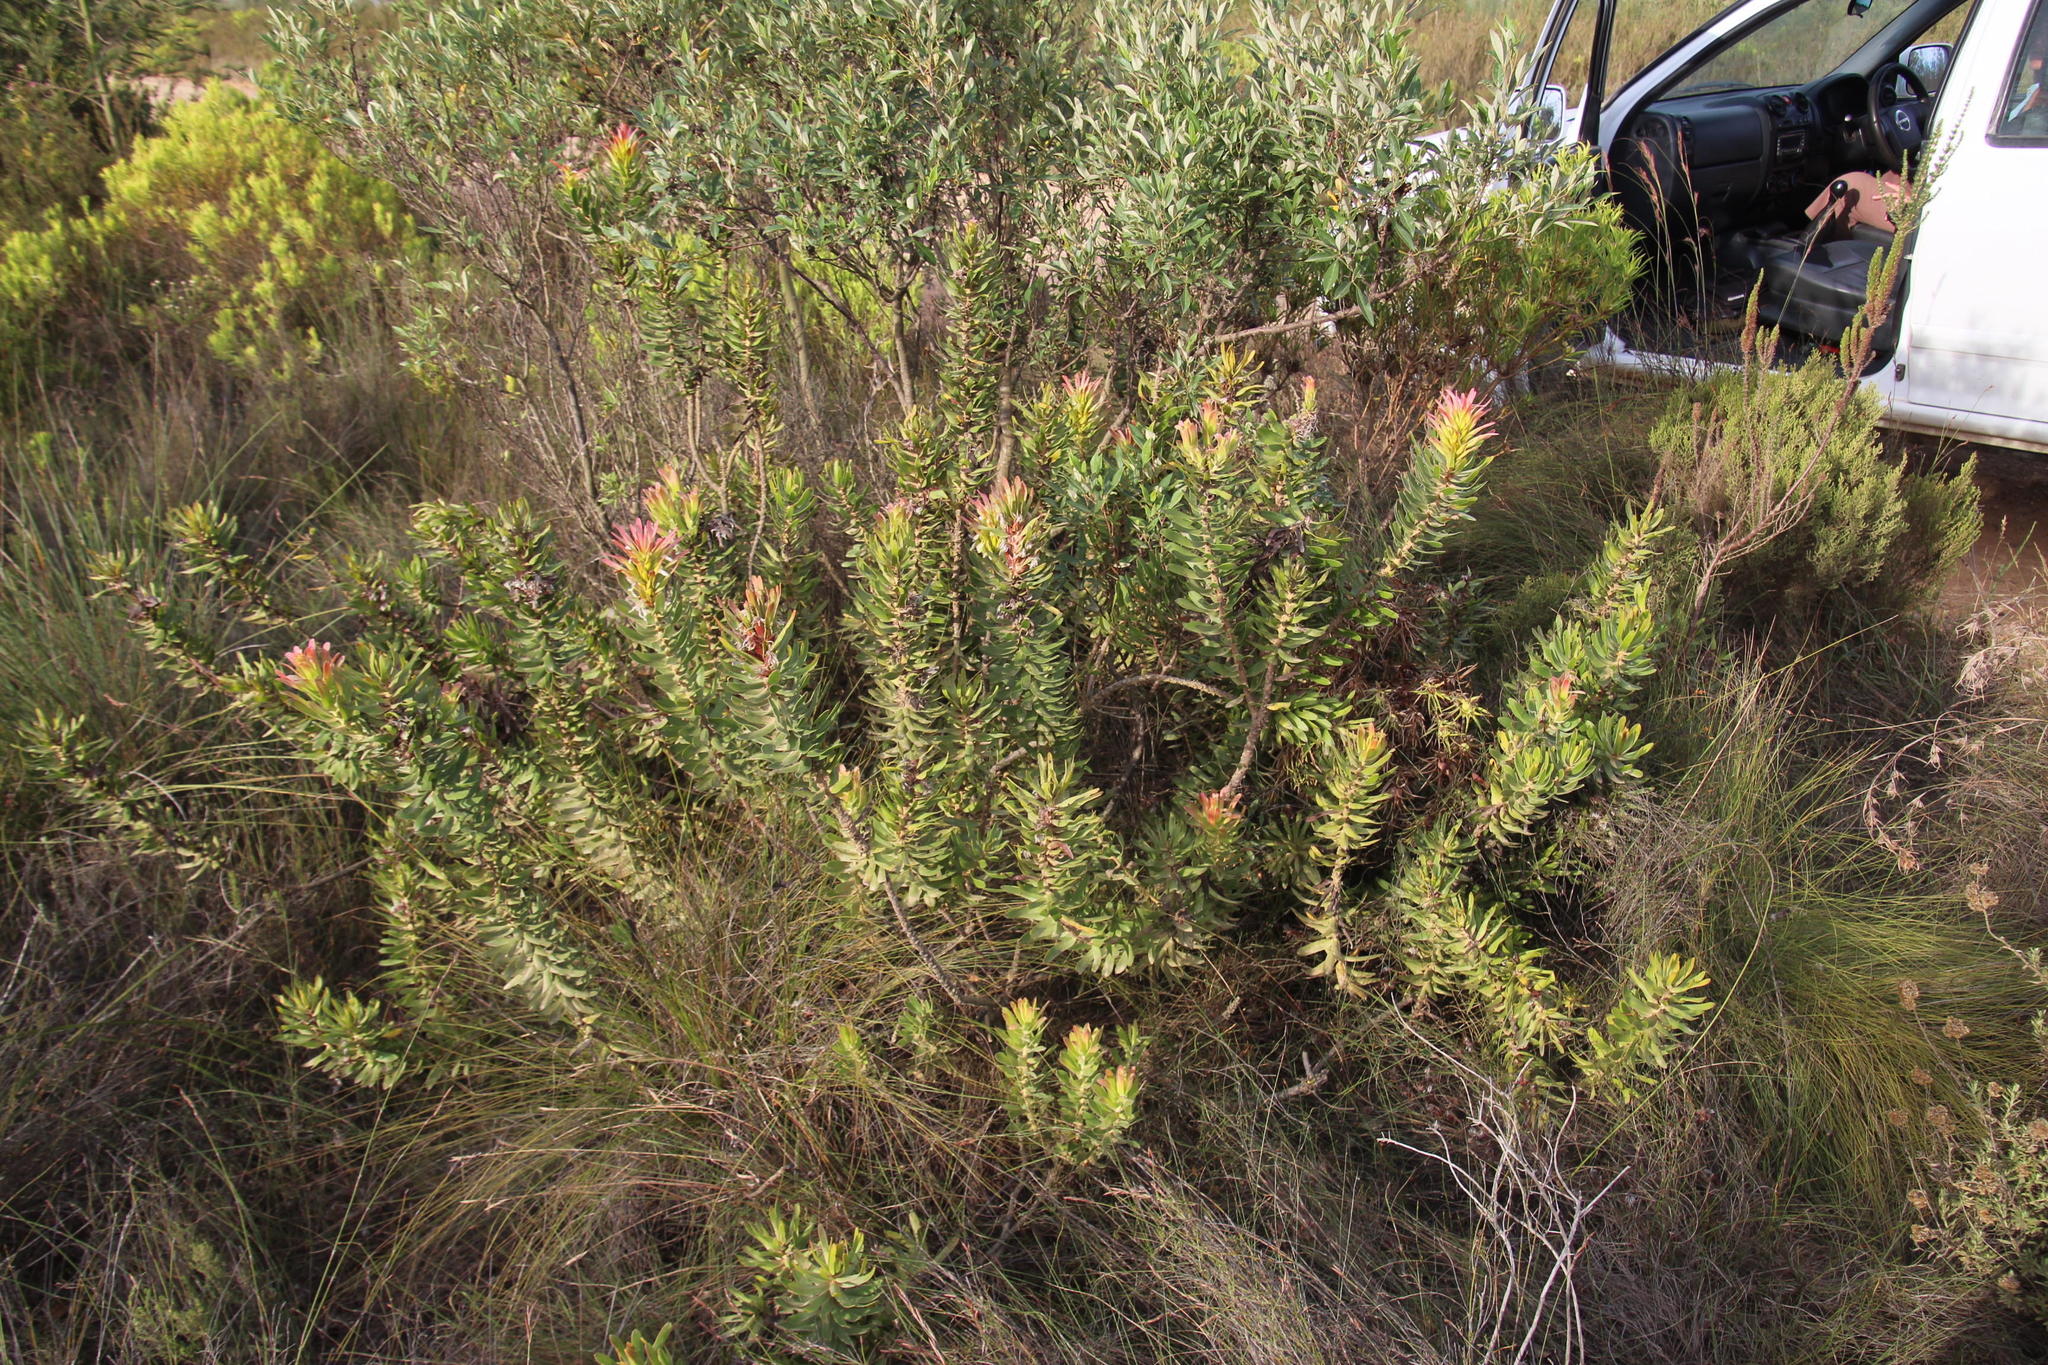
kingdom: Plantae
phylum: Tracheophyta
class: Magnoliopsida
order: Proteales
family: Proteaceae
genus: Mimetes
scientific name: Mimetes cucullatus
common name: Common pagoda
